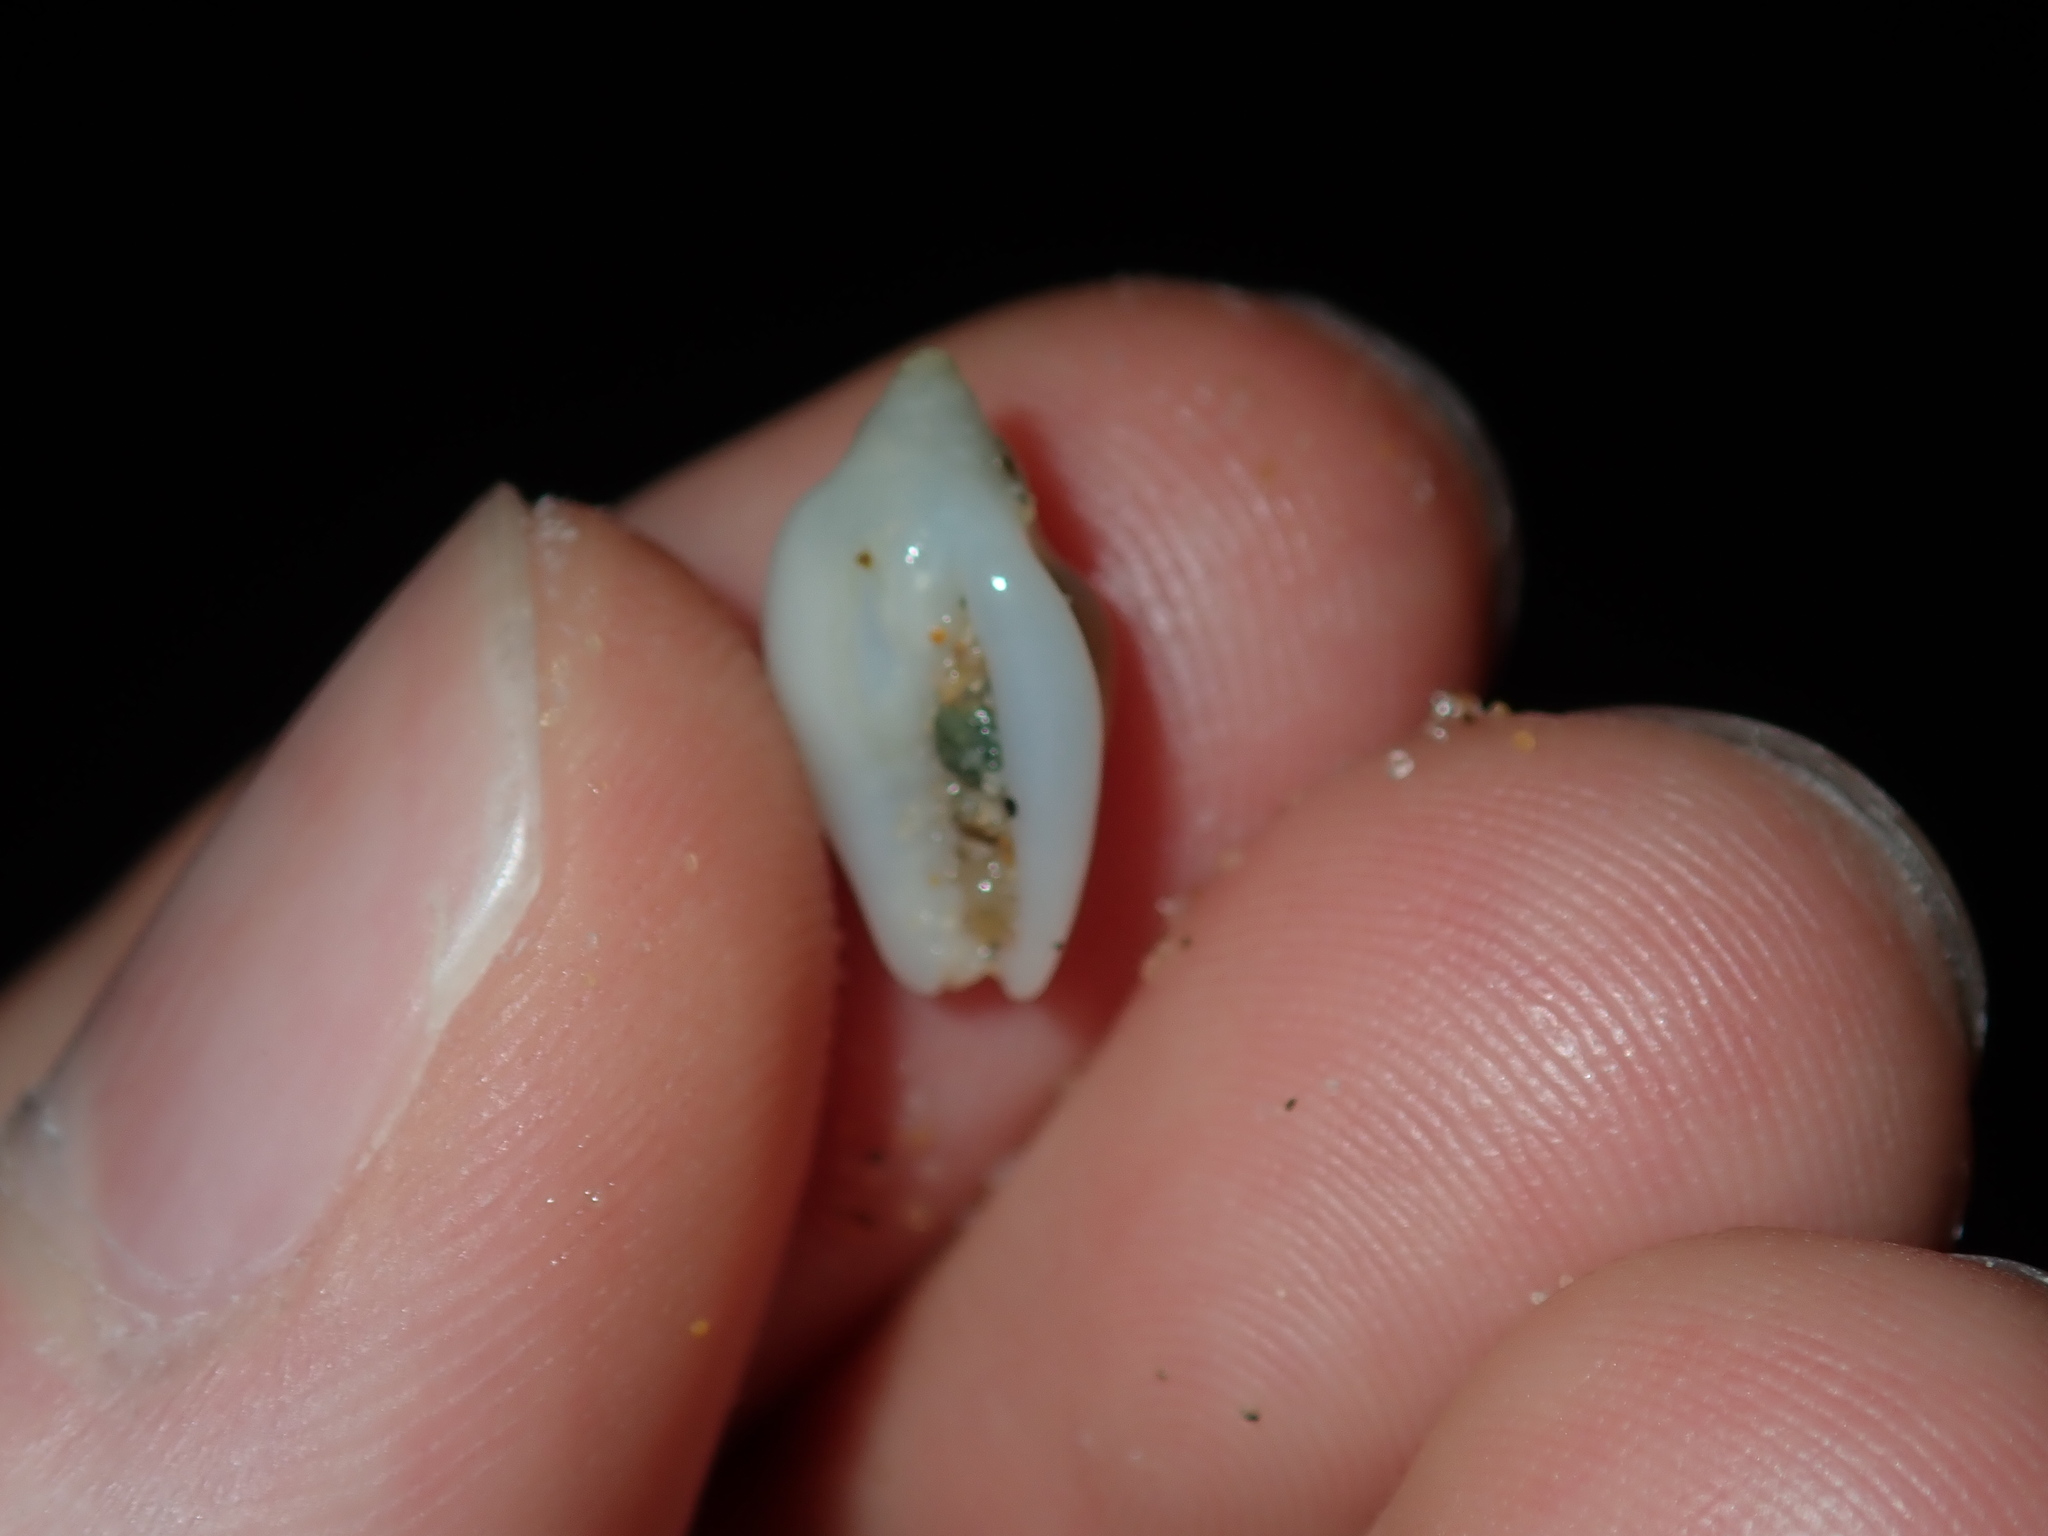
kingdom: Animalia
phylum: Mollusca
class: Gastropoda
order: Neogastropoda
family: Marginellidae
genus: Austroginella
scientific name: Austroginella muscaria
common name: Fly marginella
